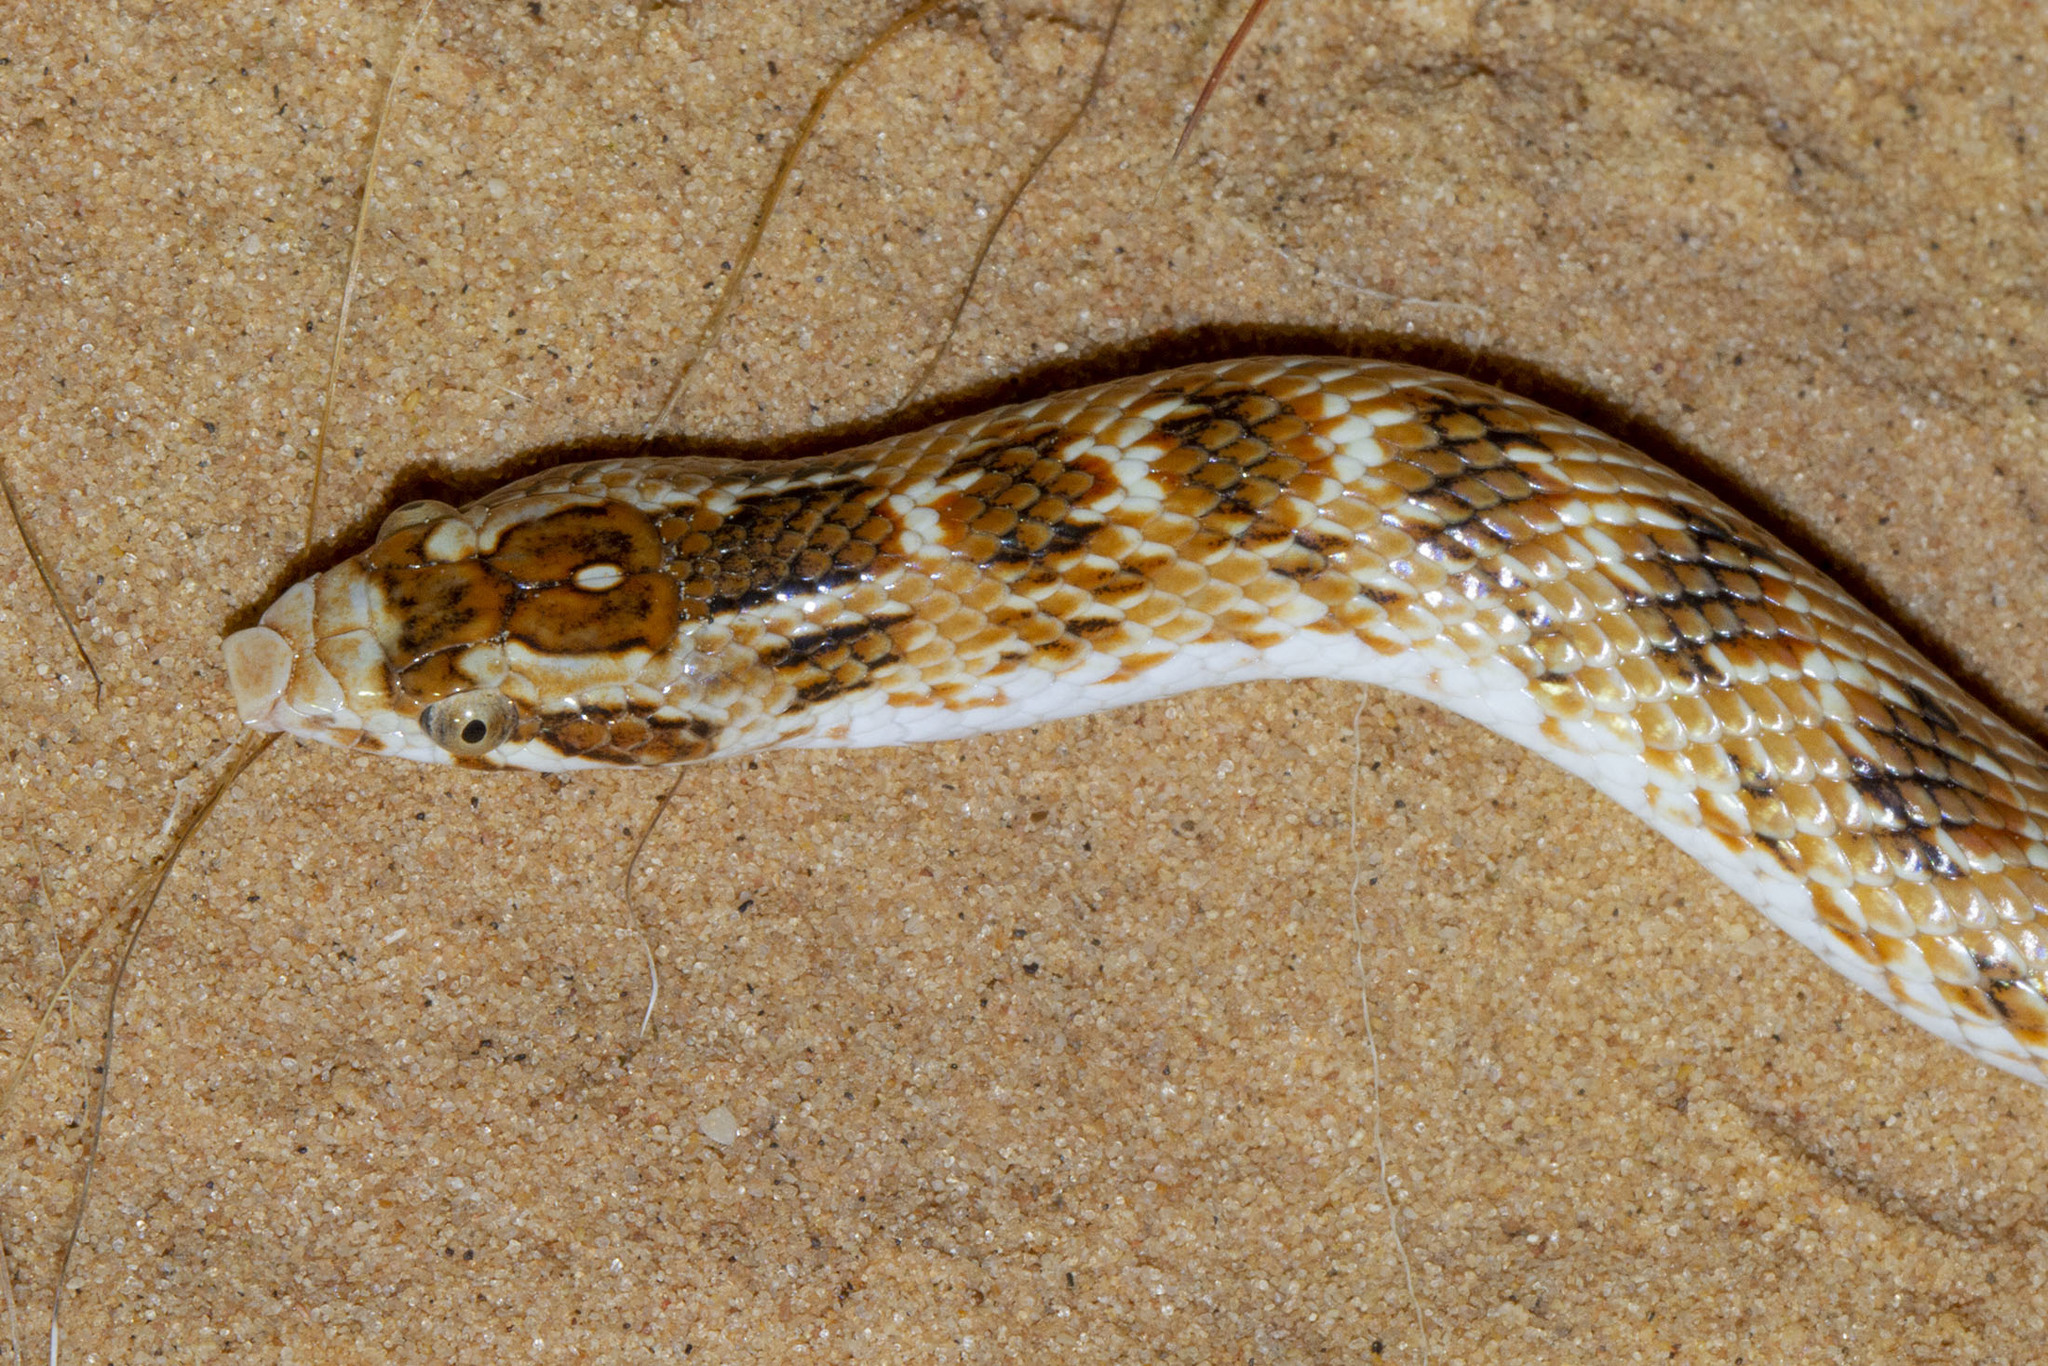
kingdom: Animalia
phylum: Chordata
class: Squamata
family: Colubridae
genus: Lytorhynchus
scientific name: Lytorhynchus diadema
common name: Awl-headed snake
